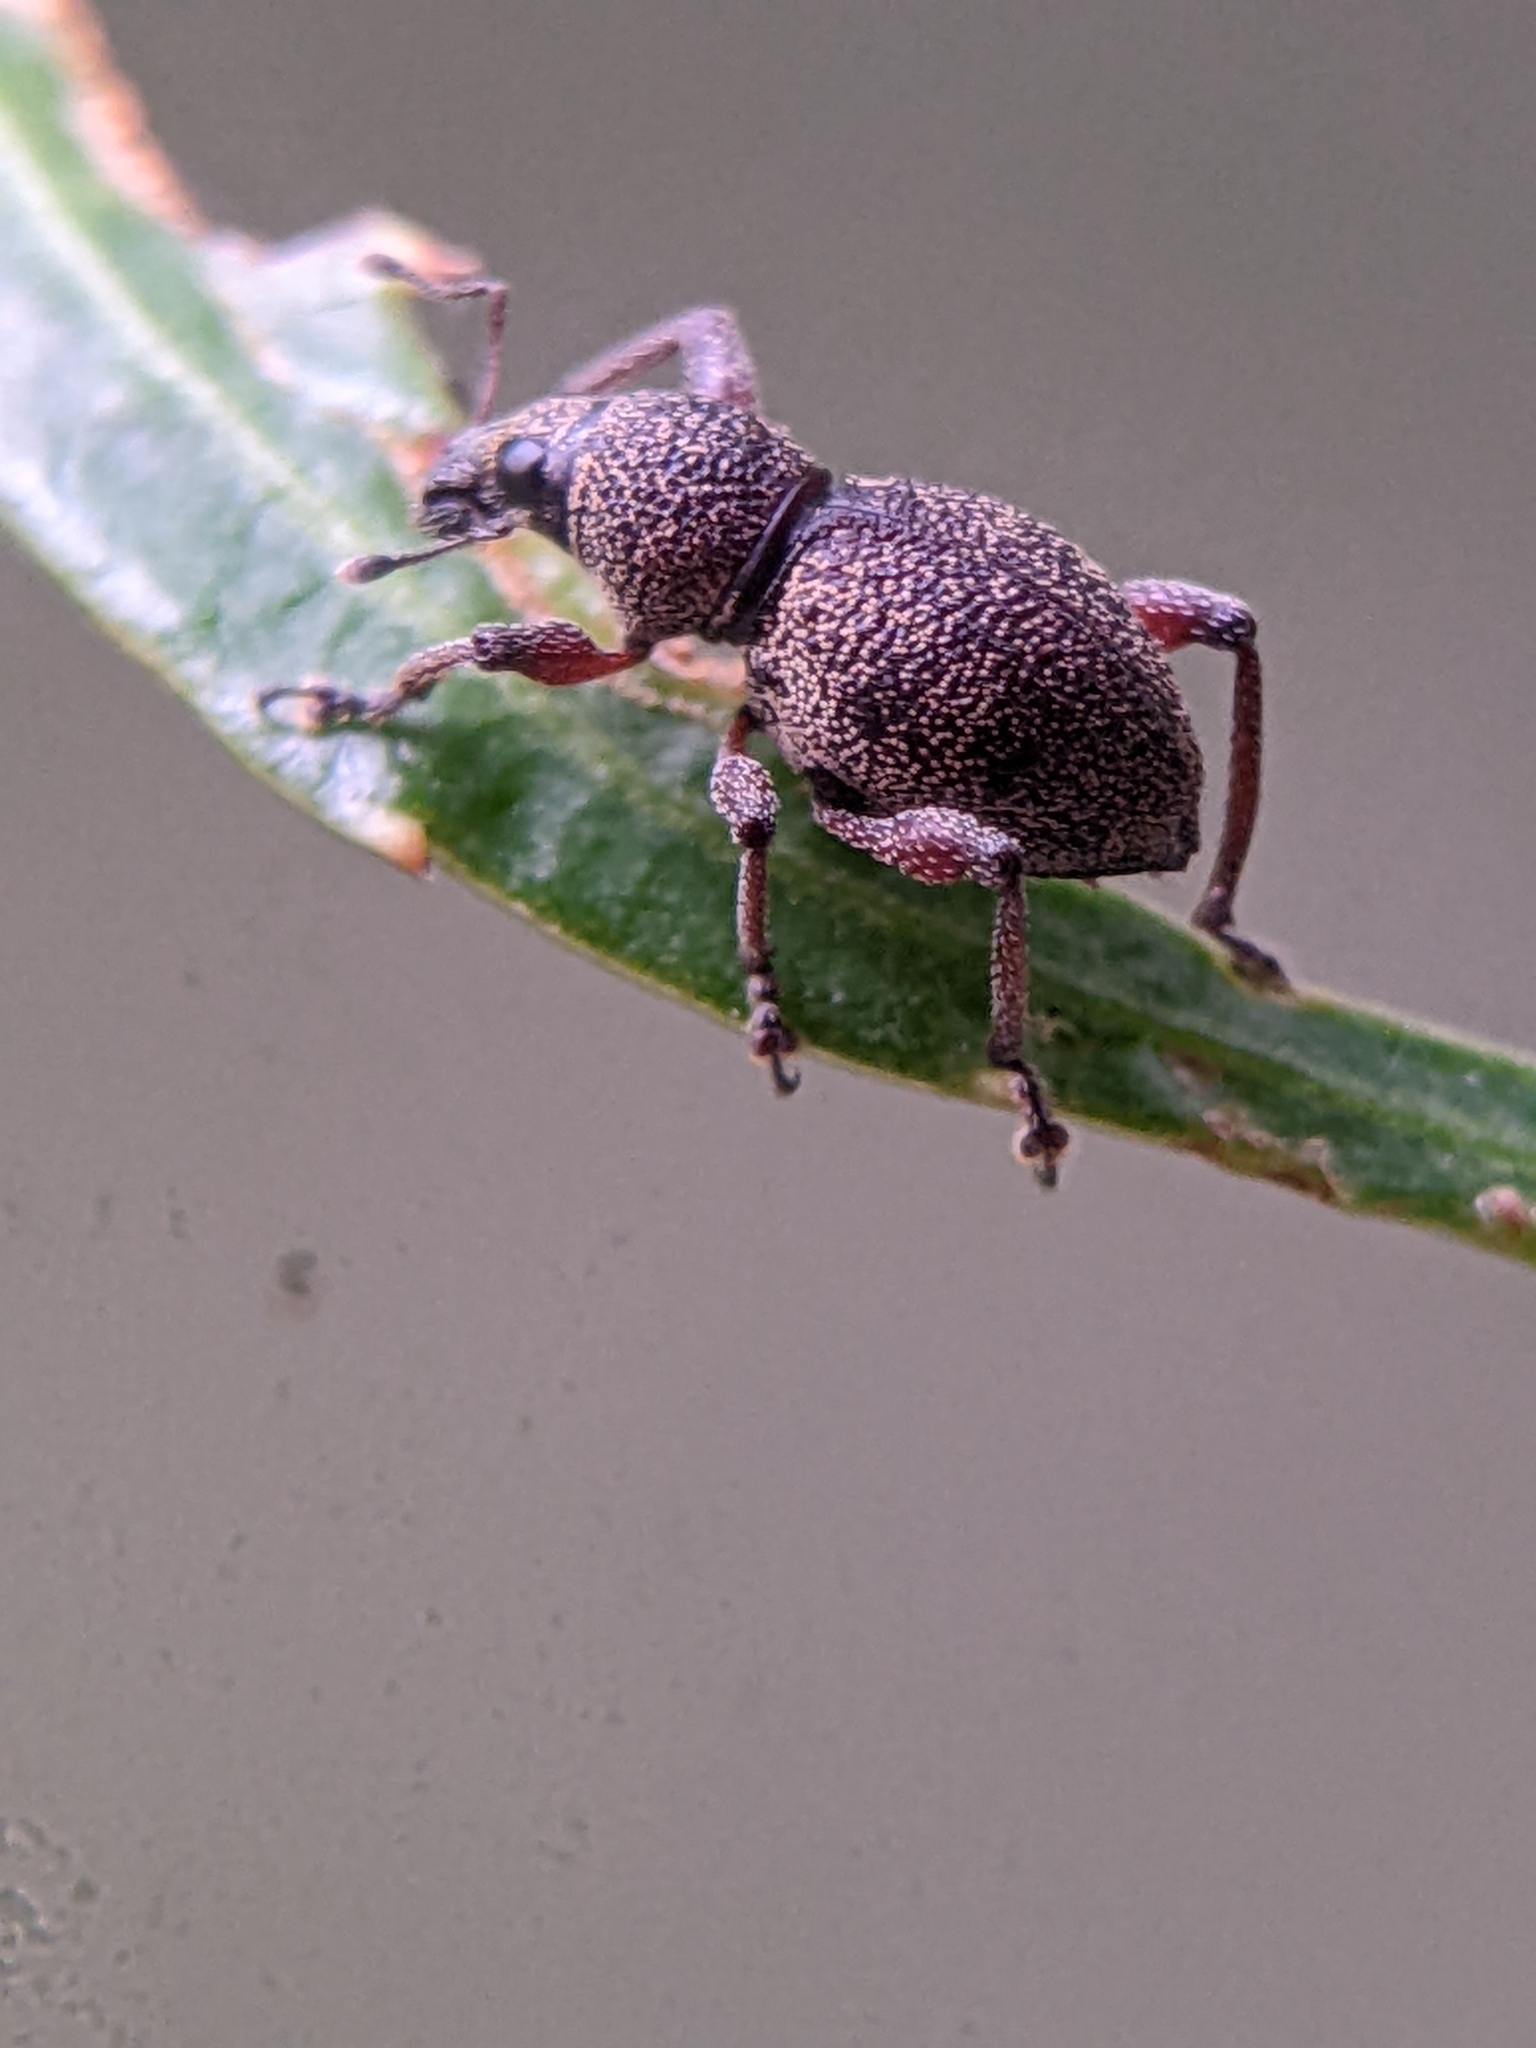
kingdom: Animalia
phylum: Arthropoda
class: Insecta
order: Coleoptera
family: Curculionidae
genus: Metapocyrtus
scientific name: Metapocyrtus adspersus
